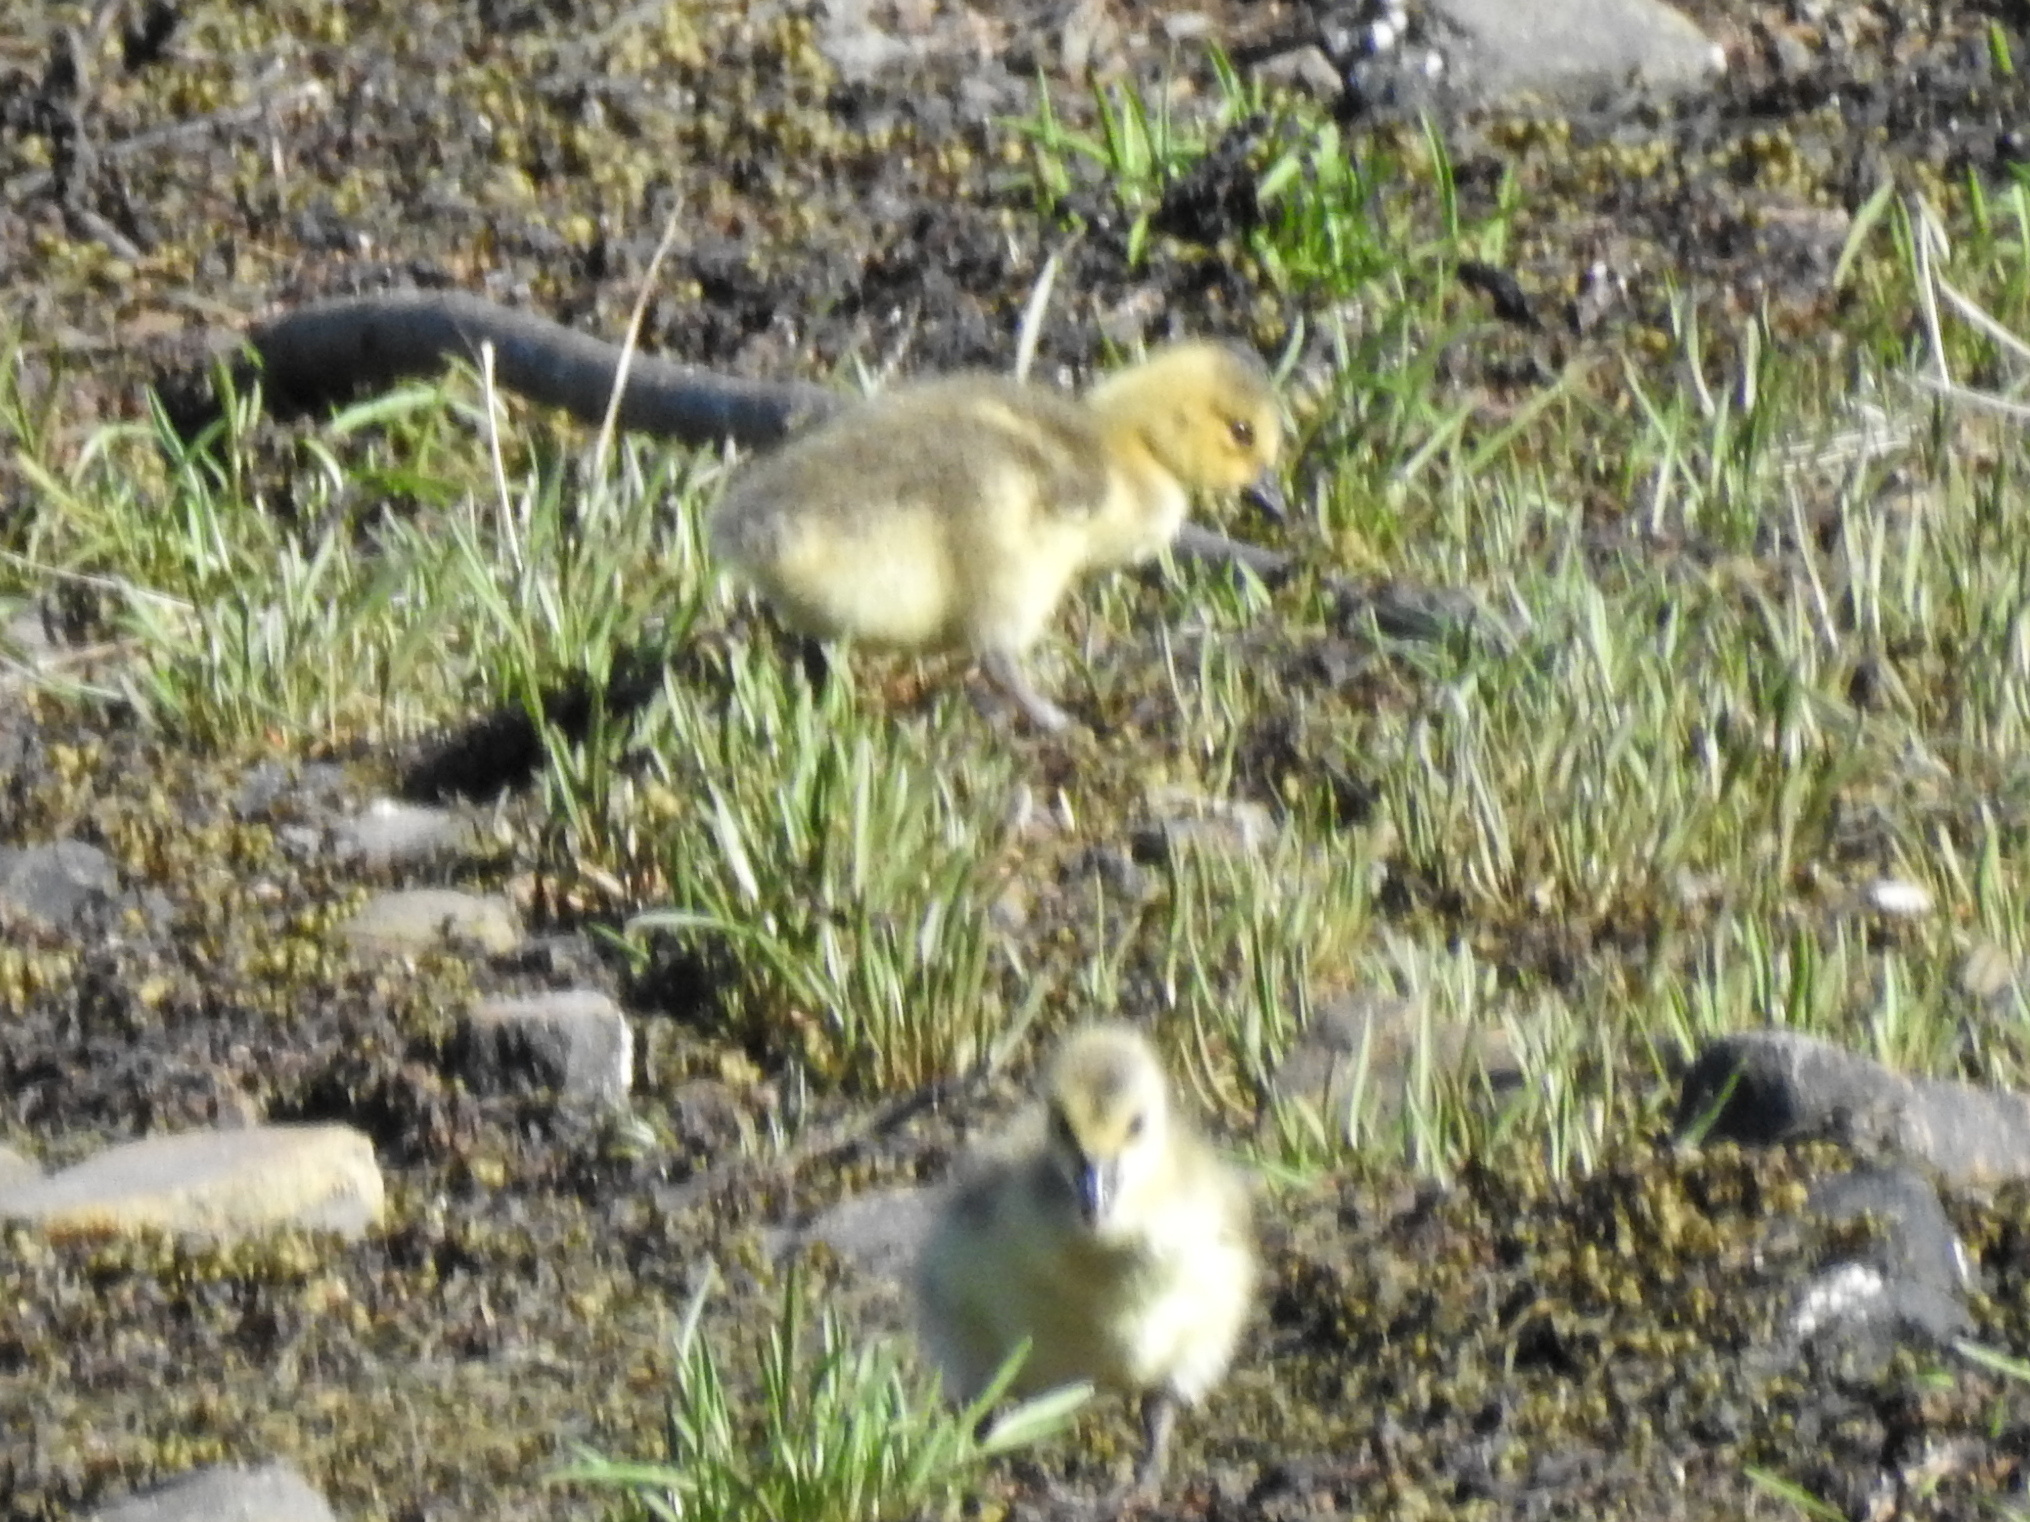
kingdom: Animalia
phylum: Chordata
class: Aves
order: Anseriformes
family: Anatidae
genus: Branta
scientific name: Branta canadensis
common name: Canada goose
